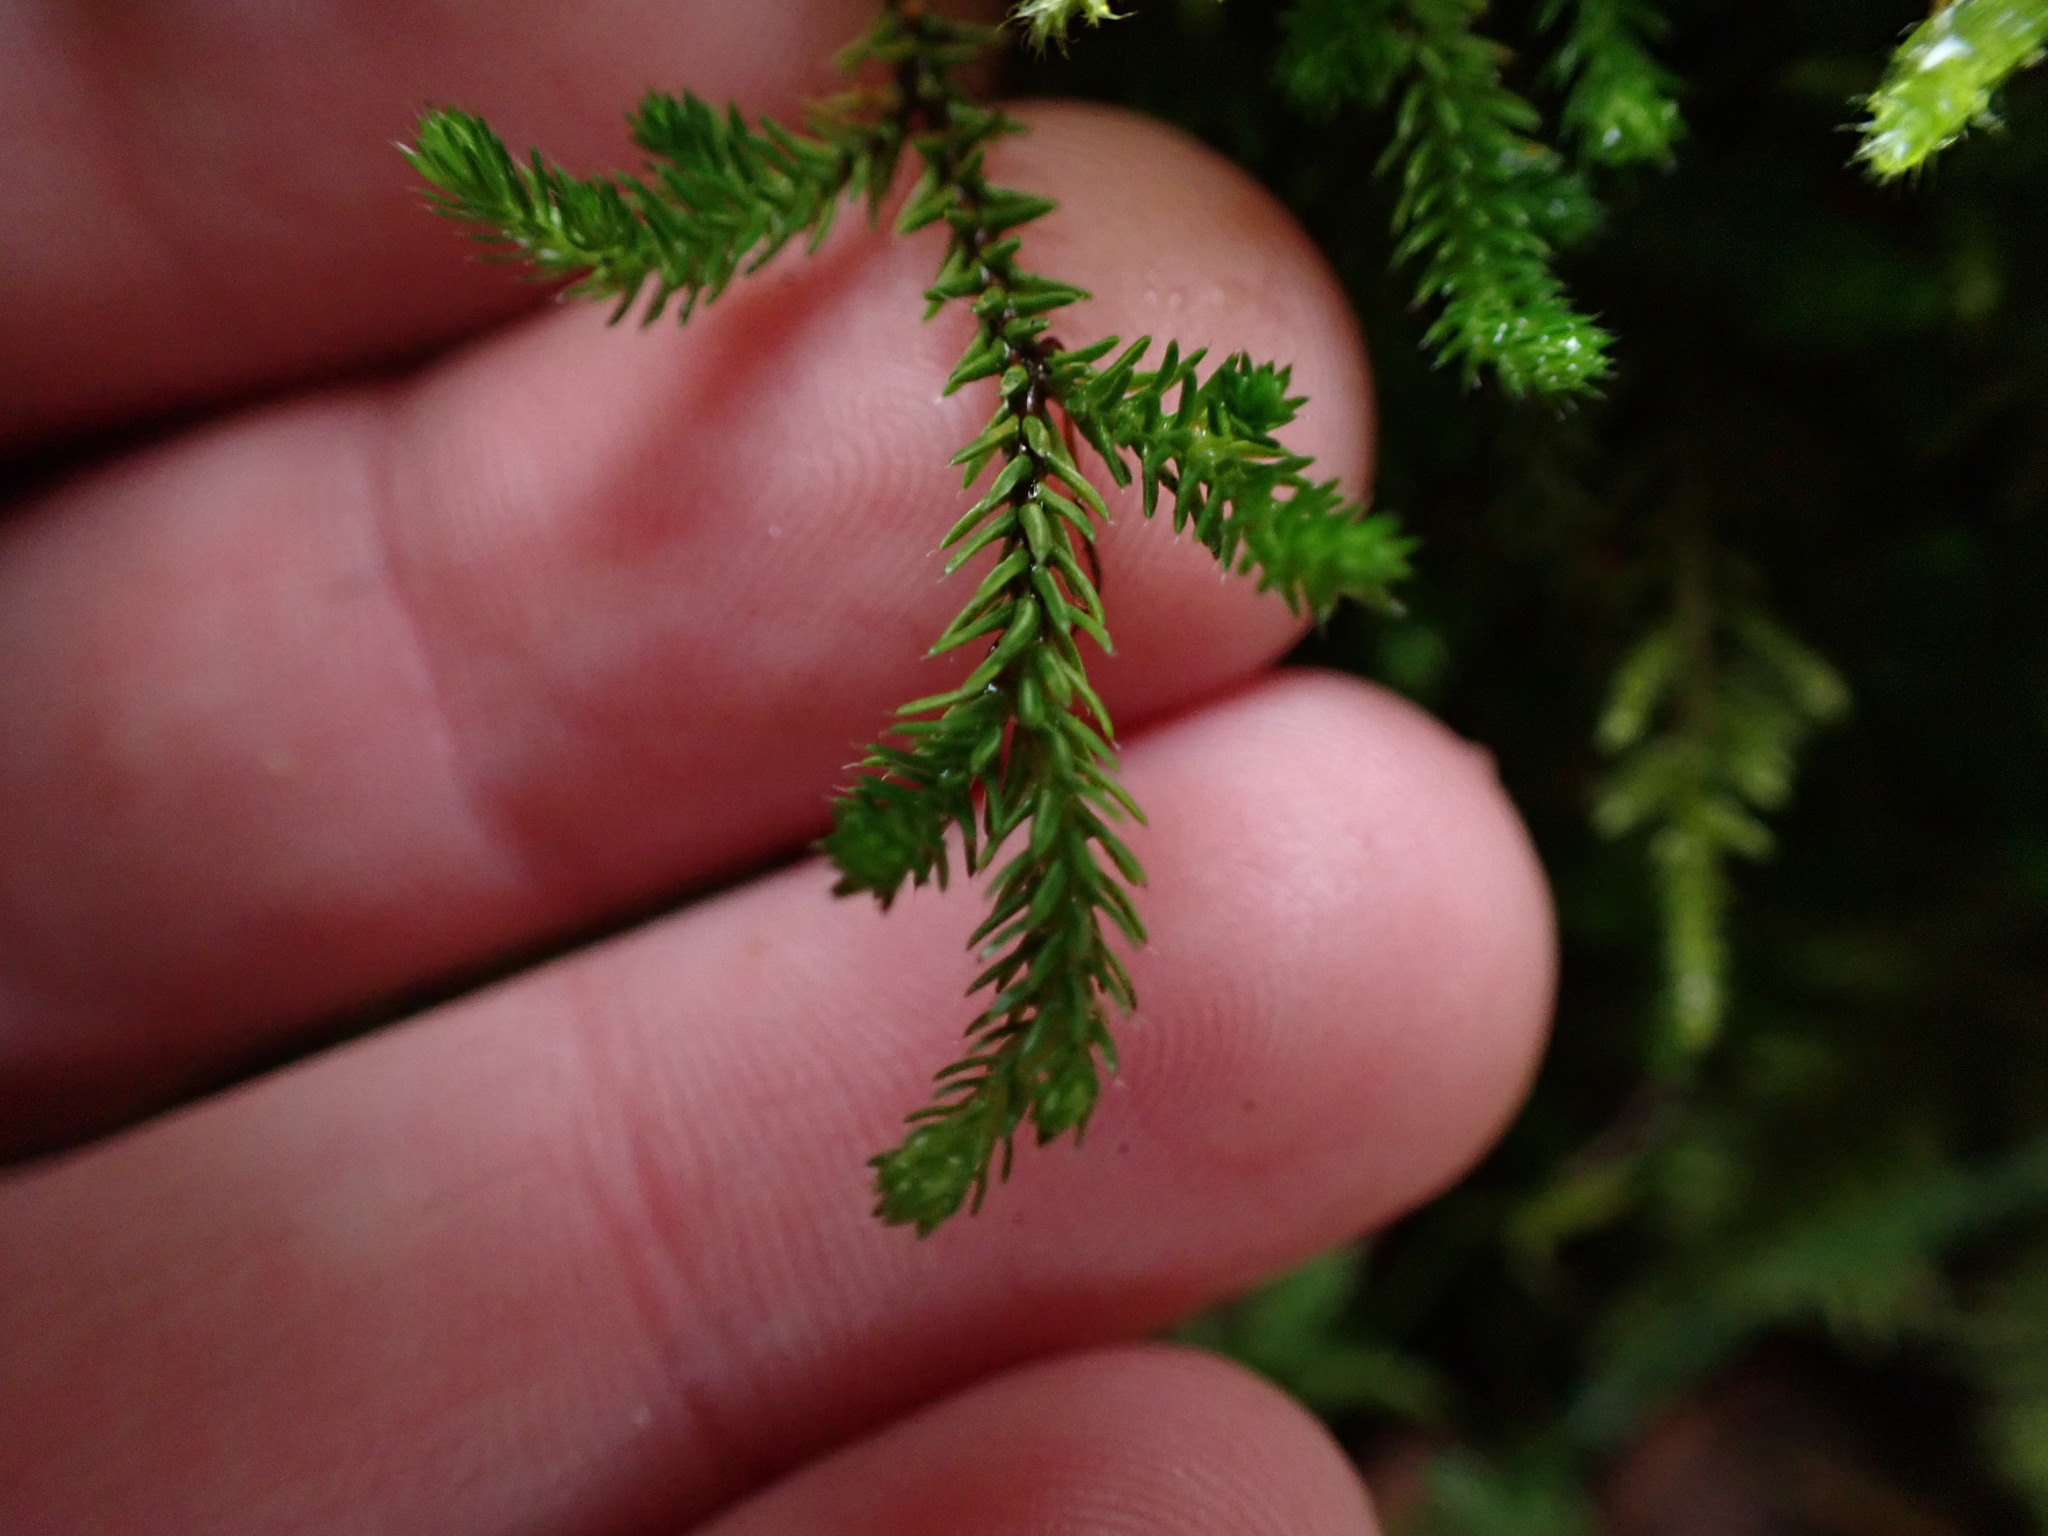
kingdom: Plantae
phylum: Tracheophyta
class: Lycopodiopsida
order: Selaginellales
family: Selaginellaceae
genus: Selaginella
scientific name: Selaginella wallacei
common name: Wallace's selaginella
